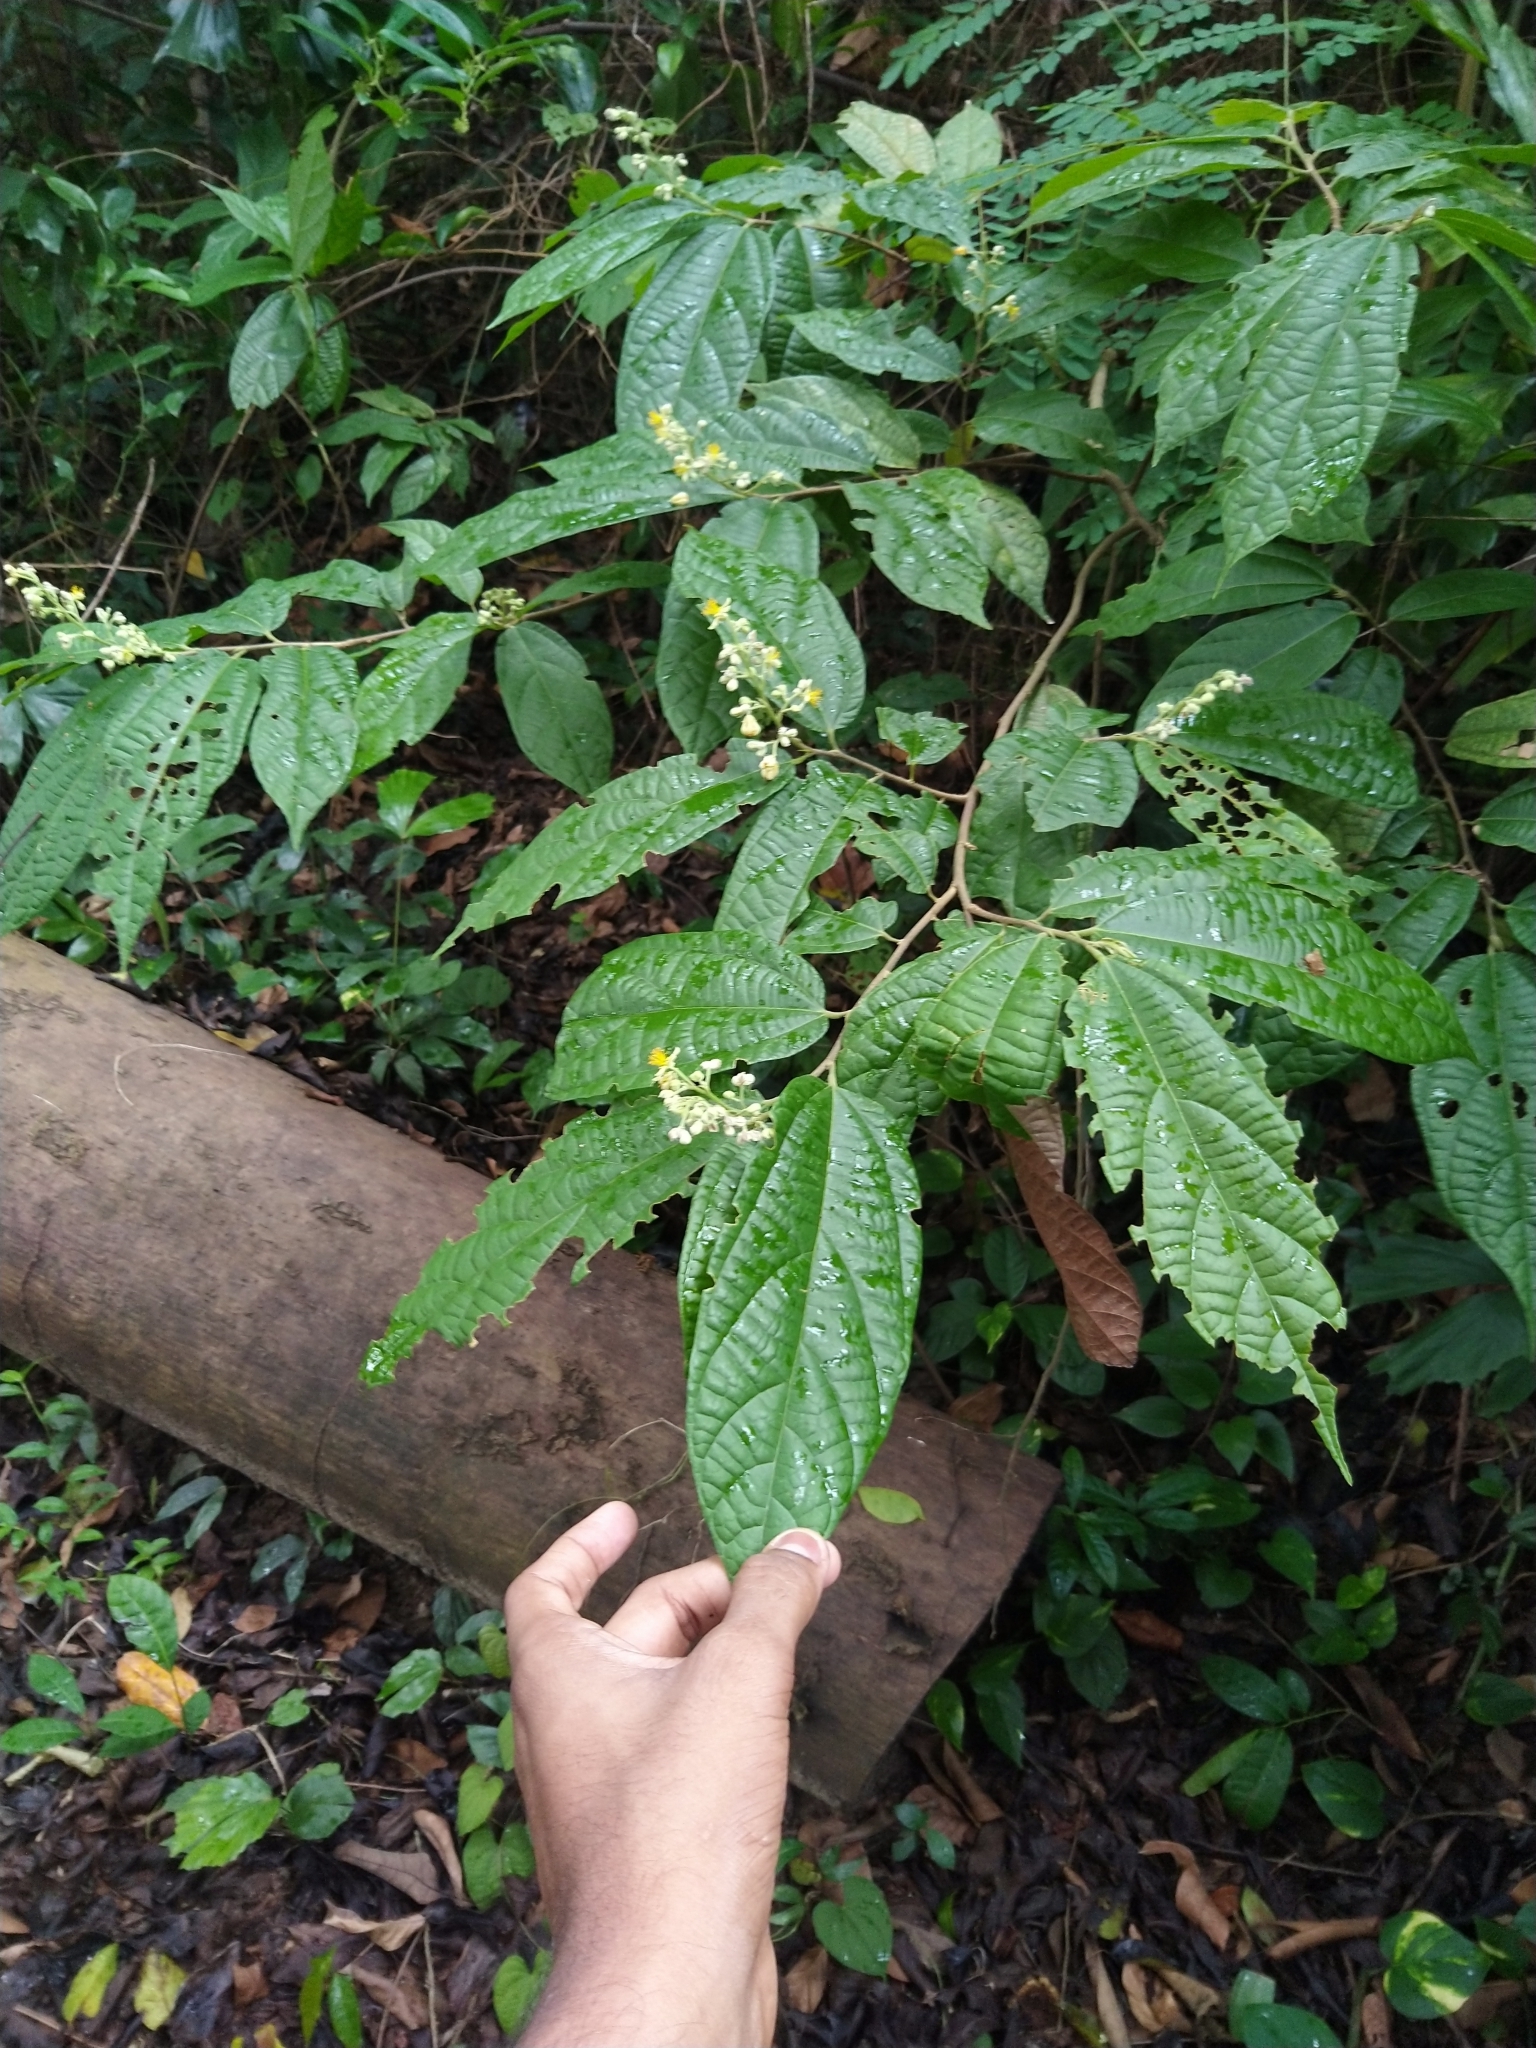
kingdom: Plantae
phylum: Tracheophyta
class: Magnoliopsida
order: Malvales
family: Malvaceae
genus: Microcos
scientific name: Microcos paniculata
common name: Microcos
